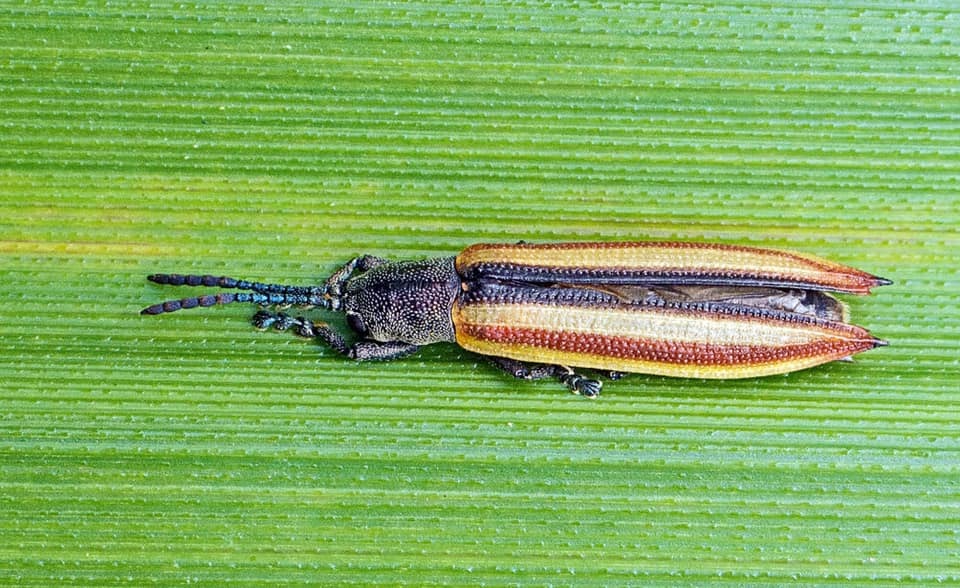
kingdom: Animalia
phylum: Arthropoda
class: Insecta
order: Coleoptera
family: Chrysomelidae
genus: Eurispa
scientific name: Eurispa vittata
